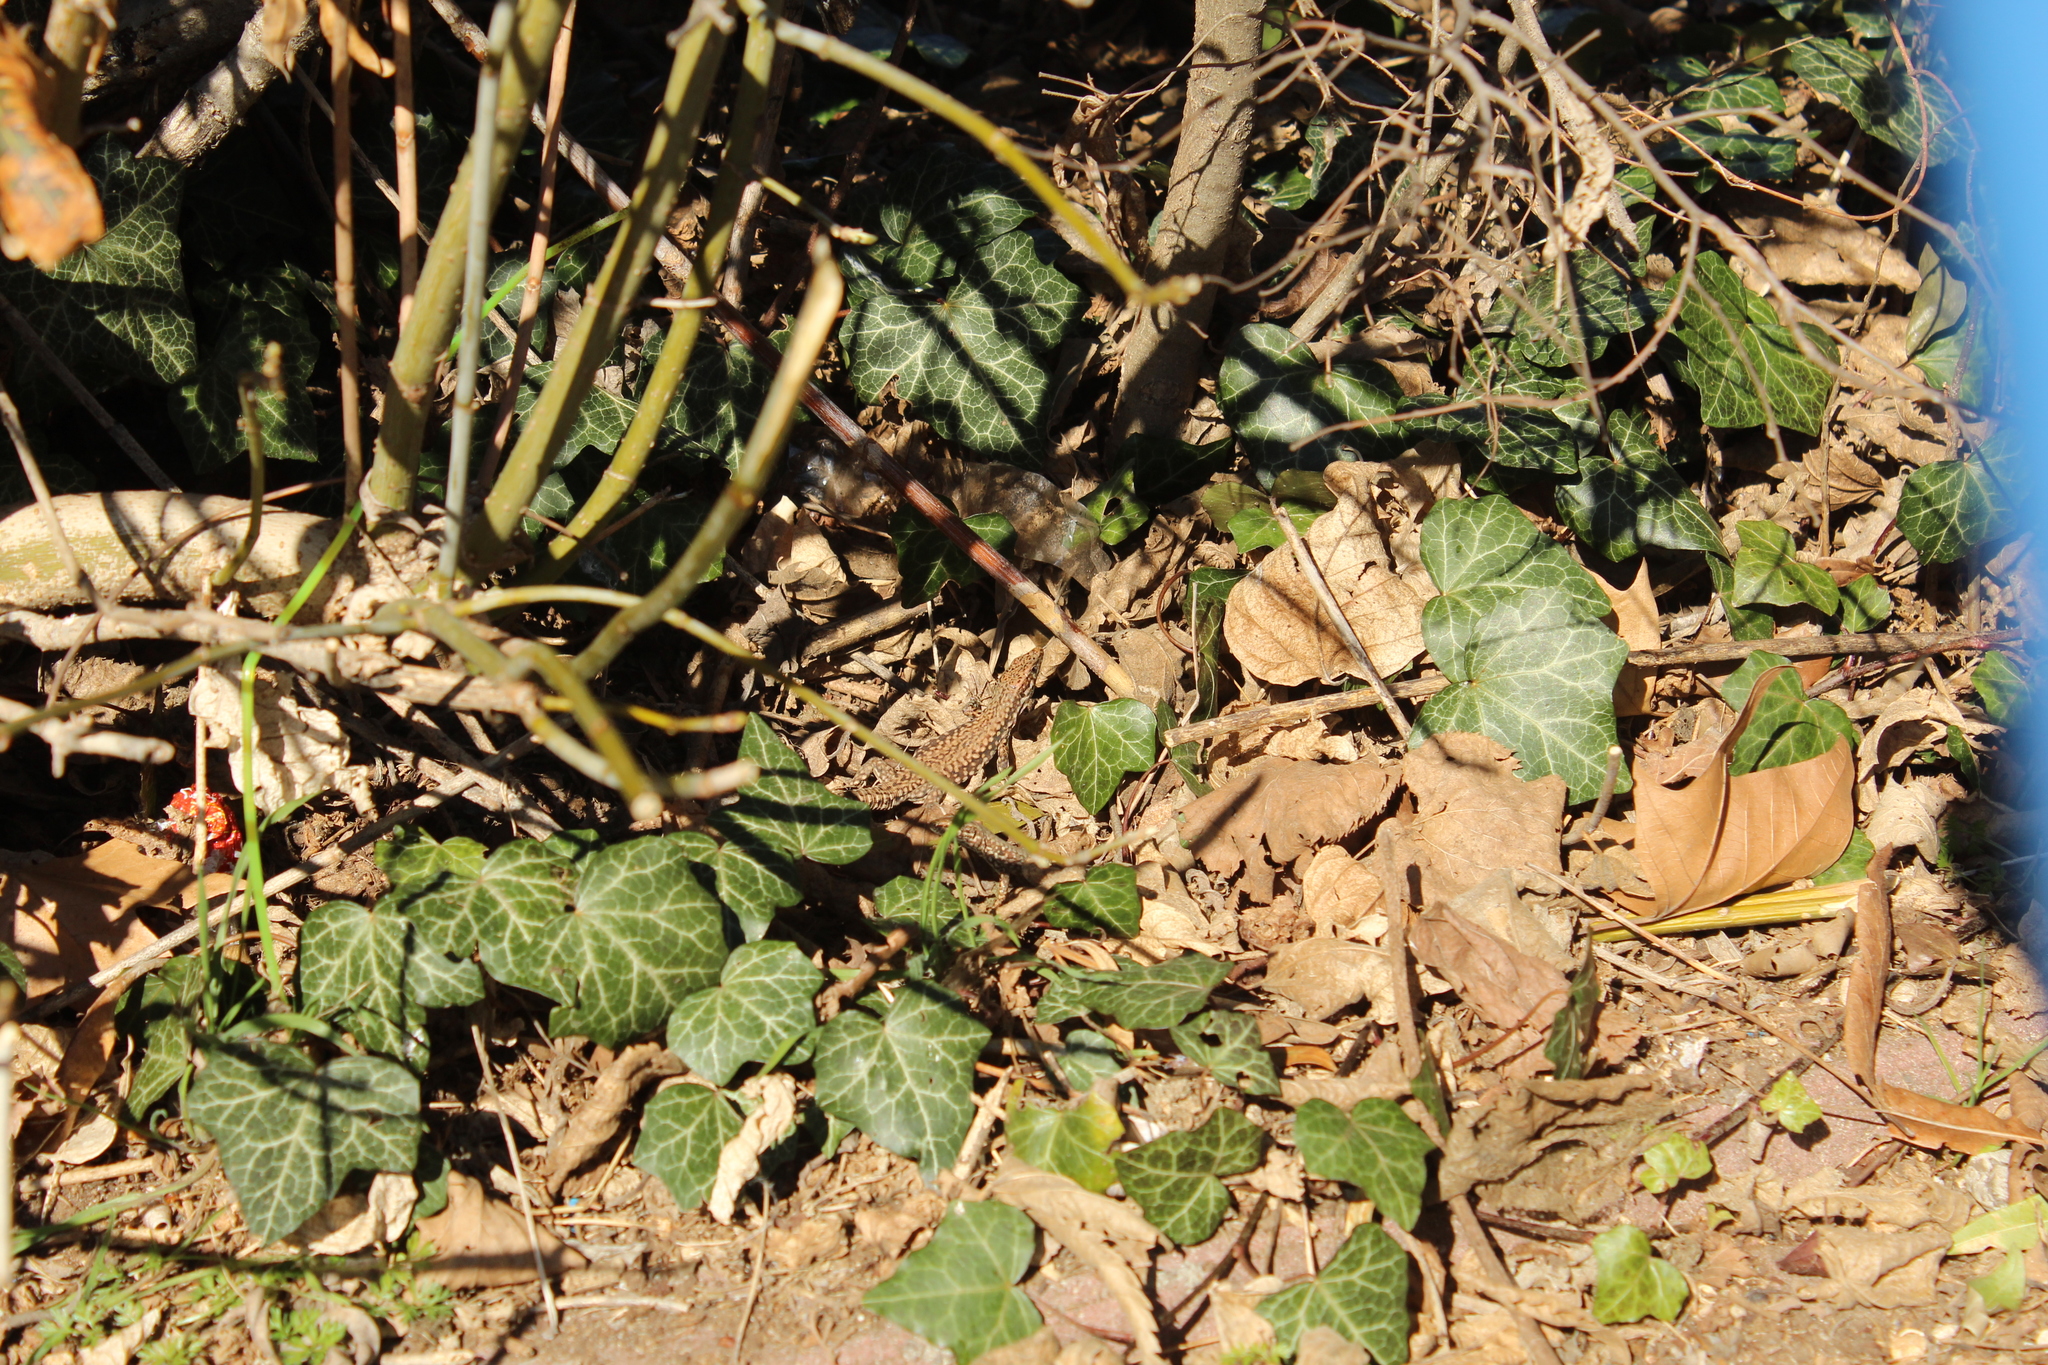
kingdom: Animalia
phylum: Chordata
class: Squamata
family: Lacertidae
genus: Podarcis
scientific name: Podarcis muralis
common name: Common wall lizard
